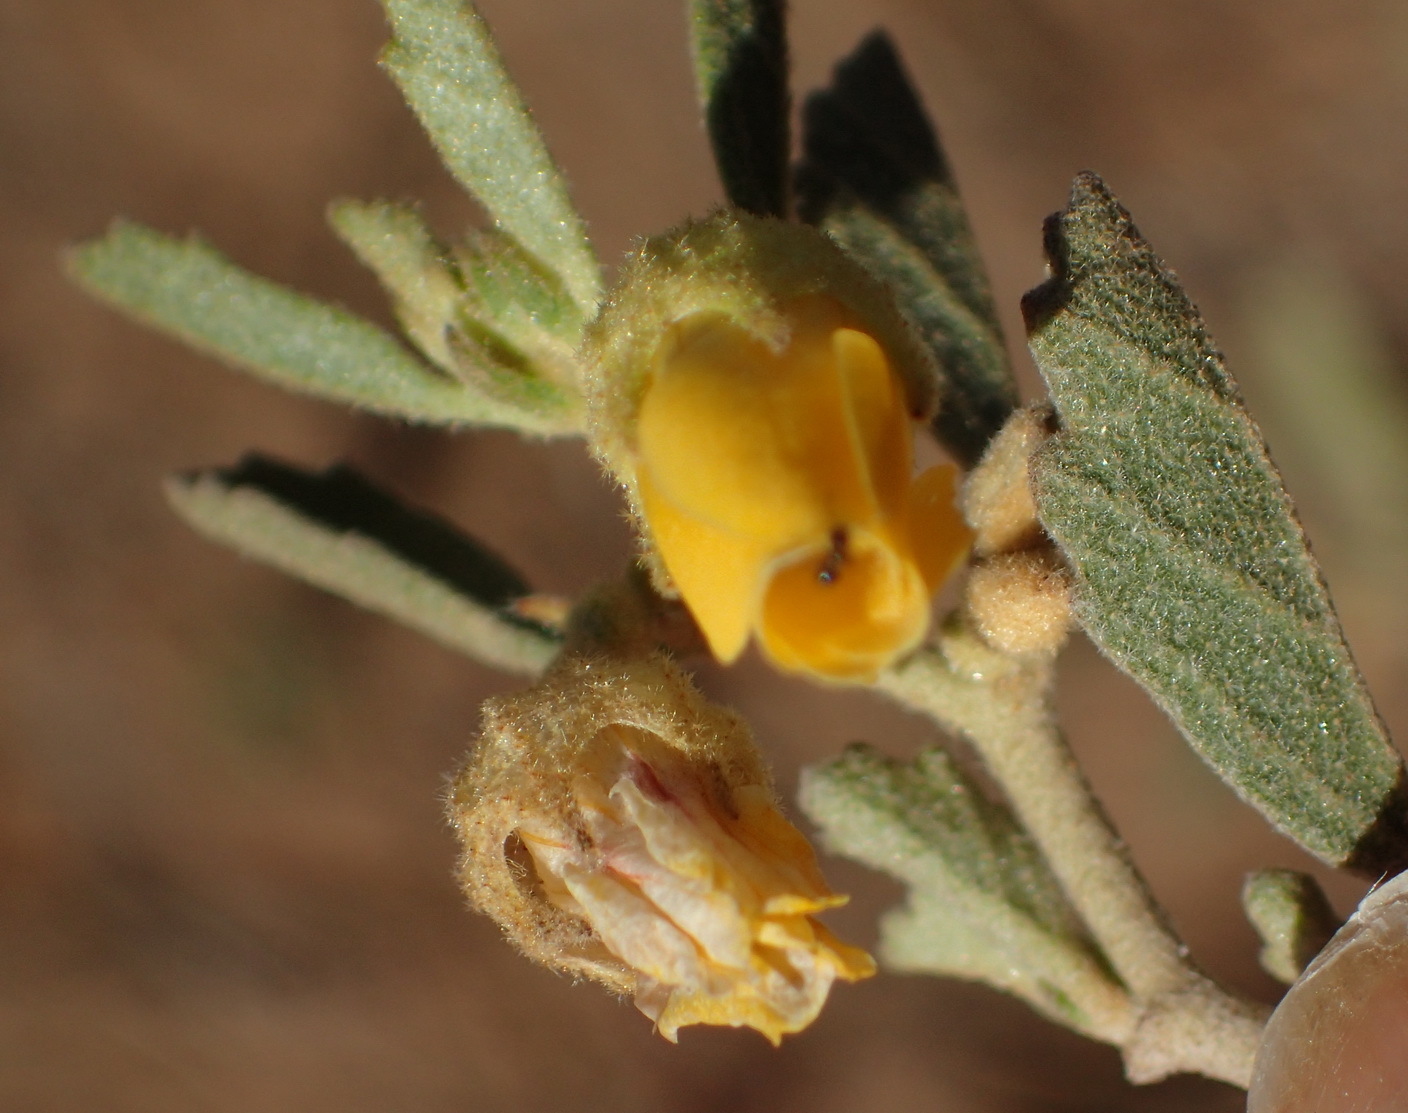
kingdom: Plantae
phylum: Tracheophyta
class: Magnoliopsida
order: Malvales
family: Malvaceae
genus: Hermannia
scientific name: Hermannia althaeifolia
